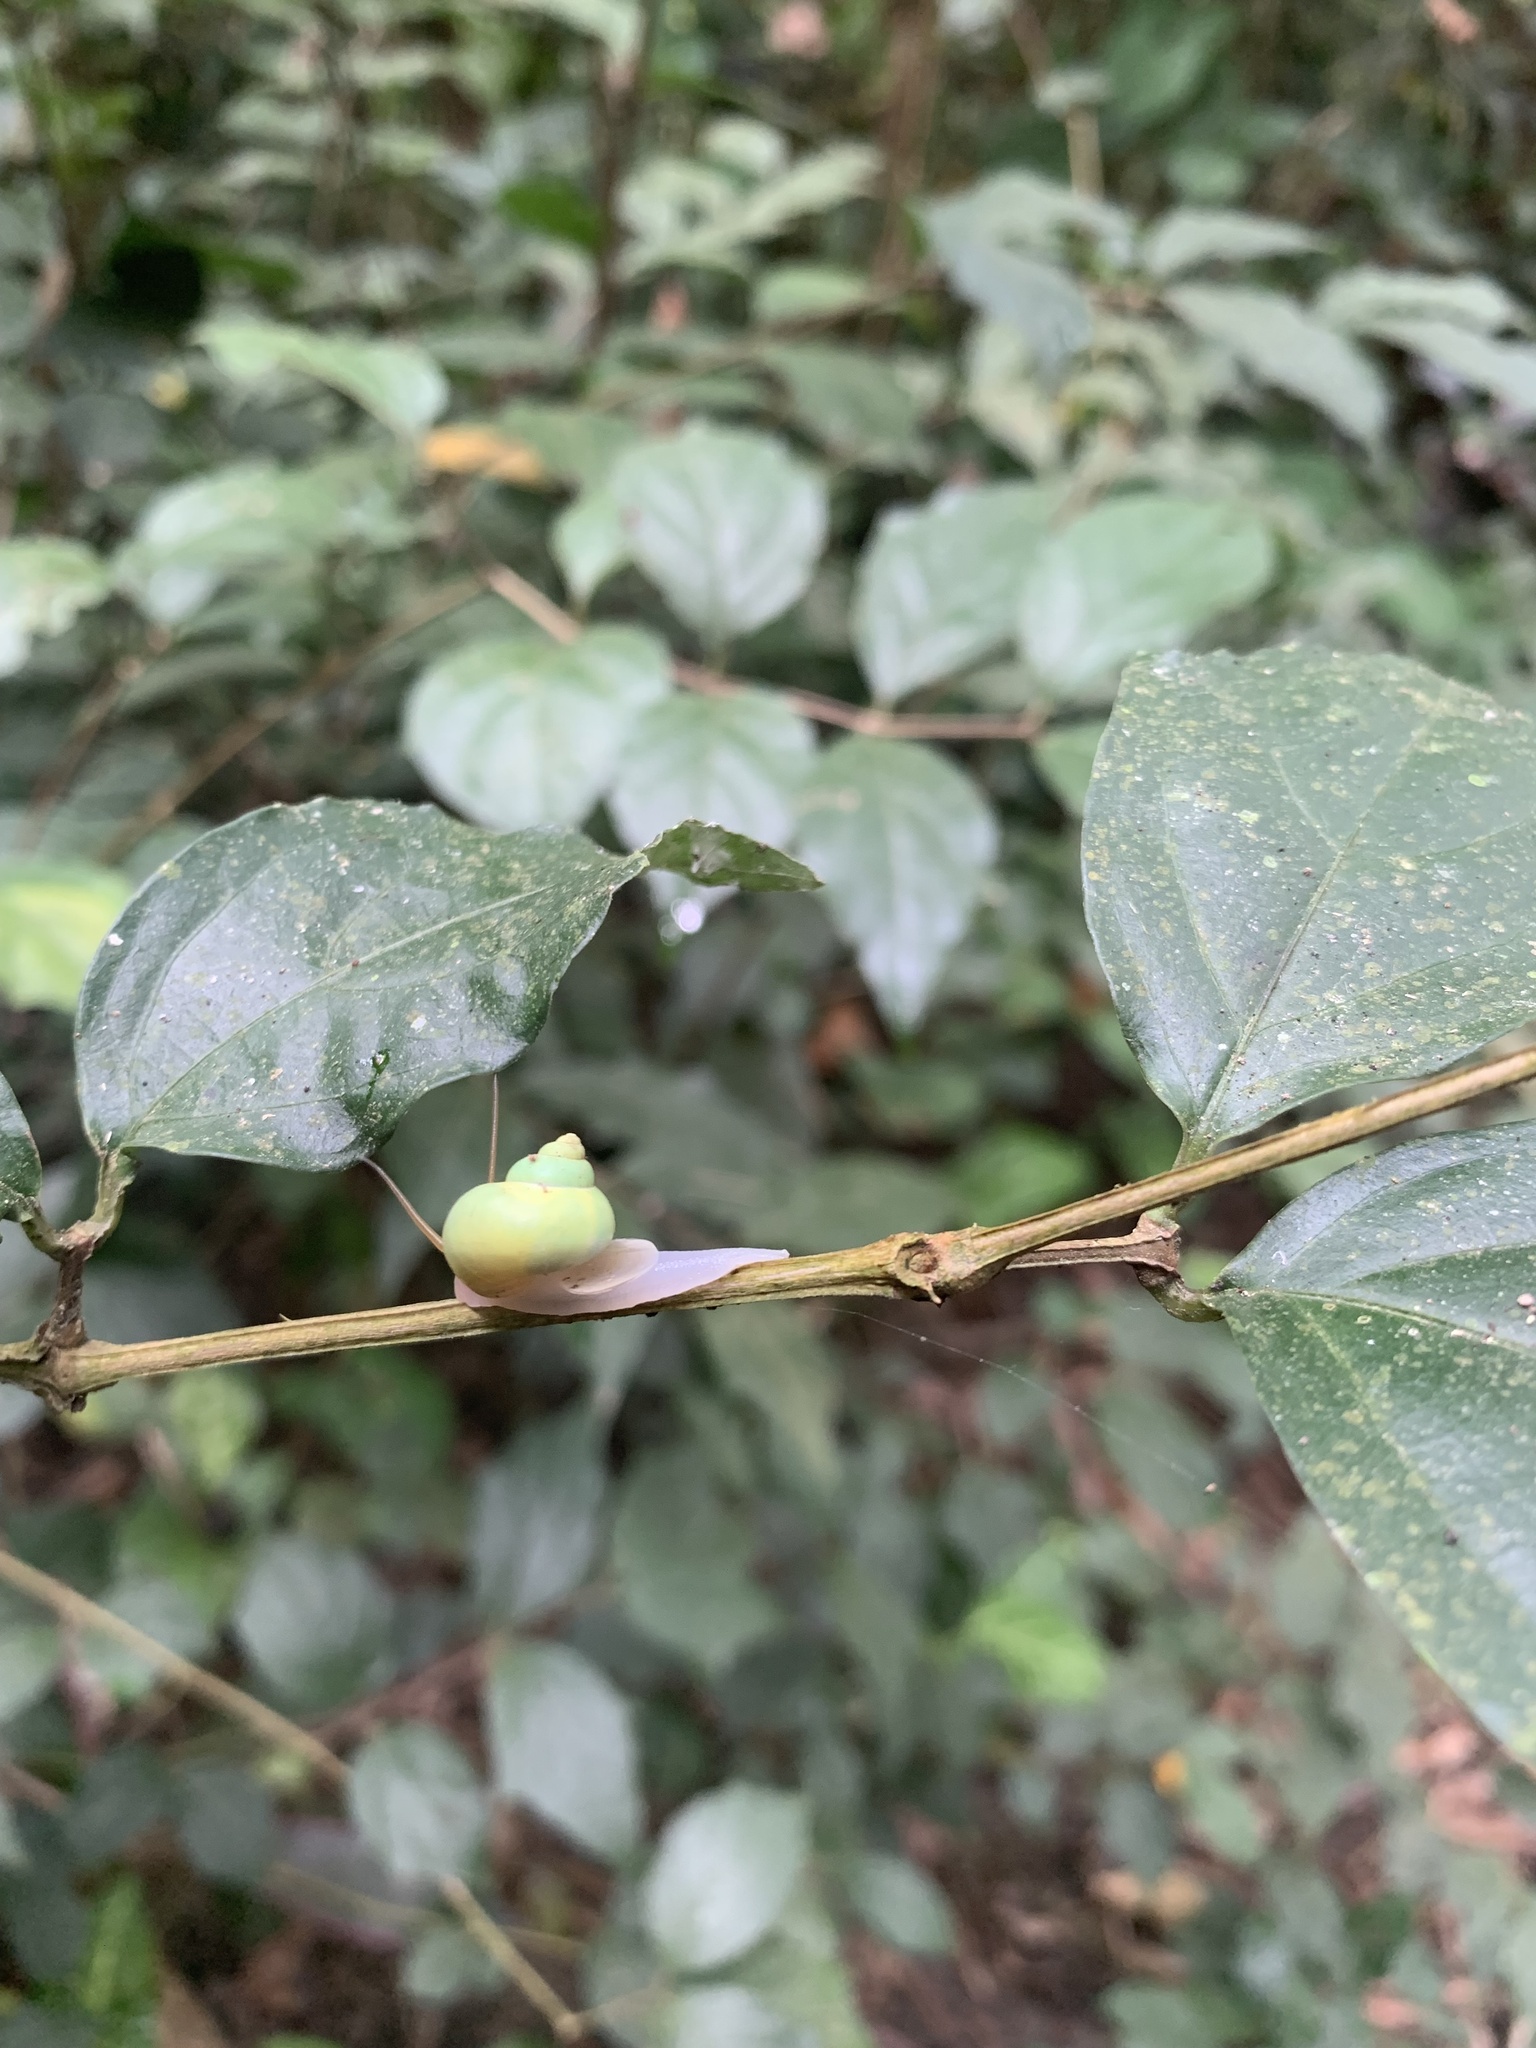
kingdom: Animalia
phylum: Mollusca
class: Gastropoda
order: Architaenioglossa
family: Cyclophoridae
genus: Leptopoma
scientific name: Leptopoma nitidum
